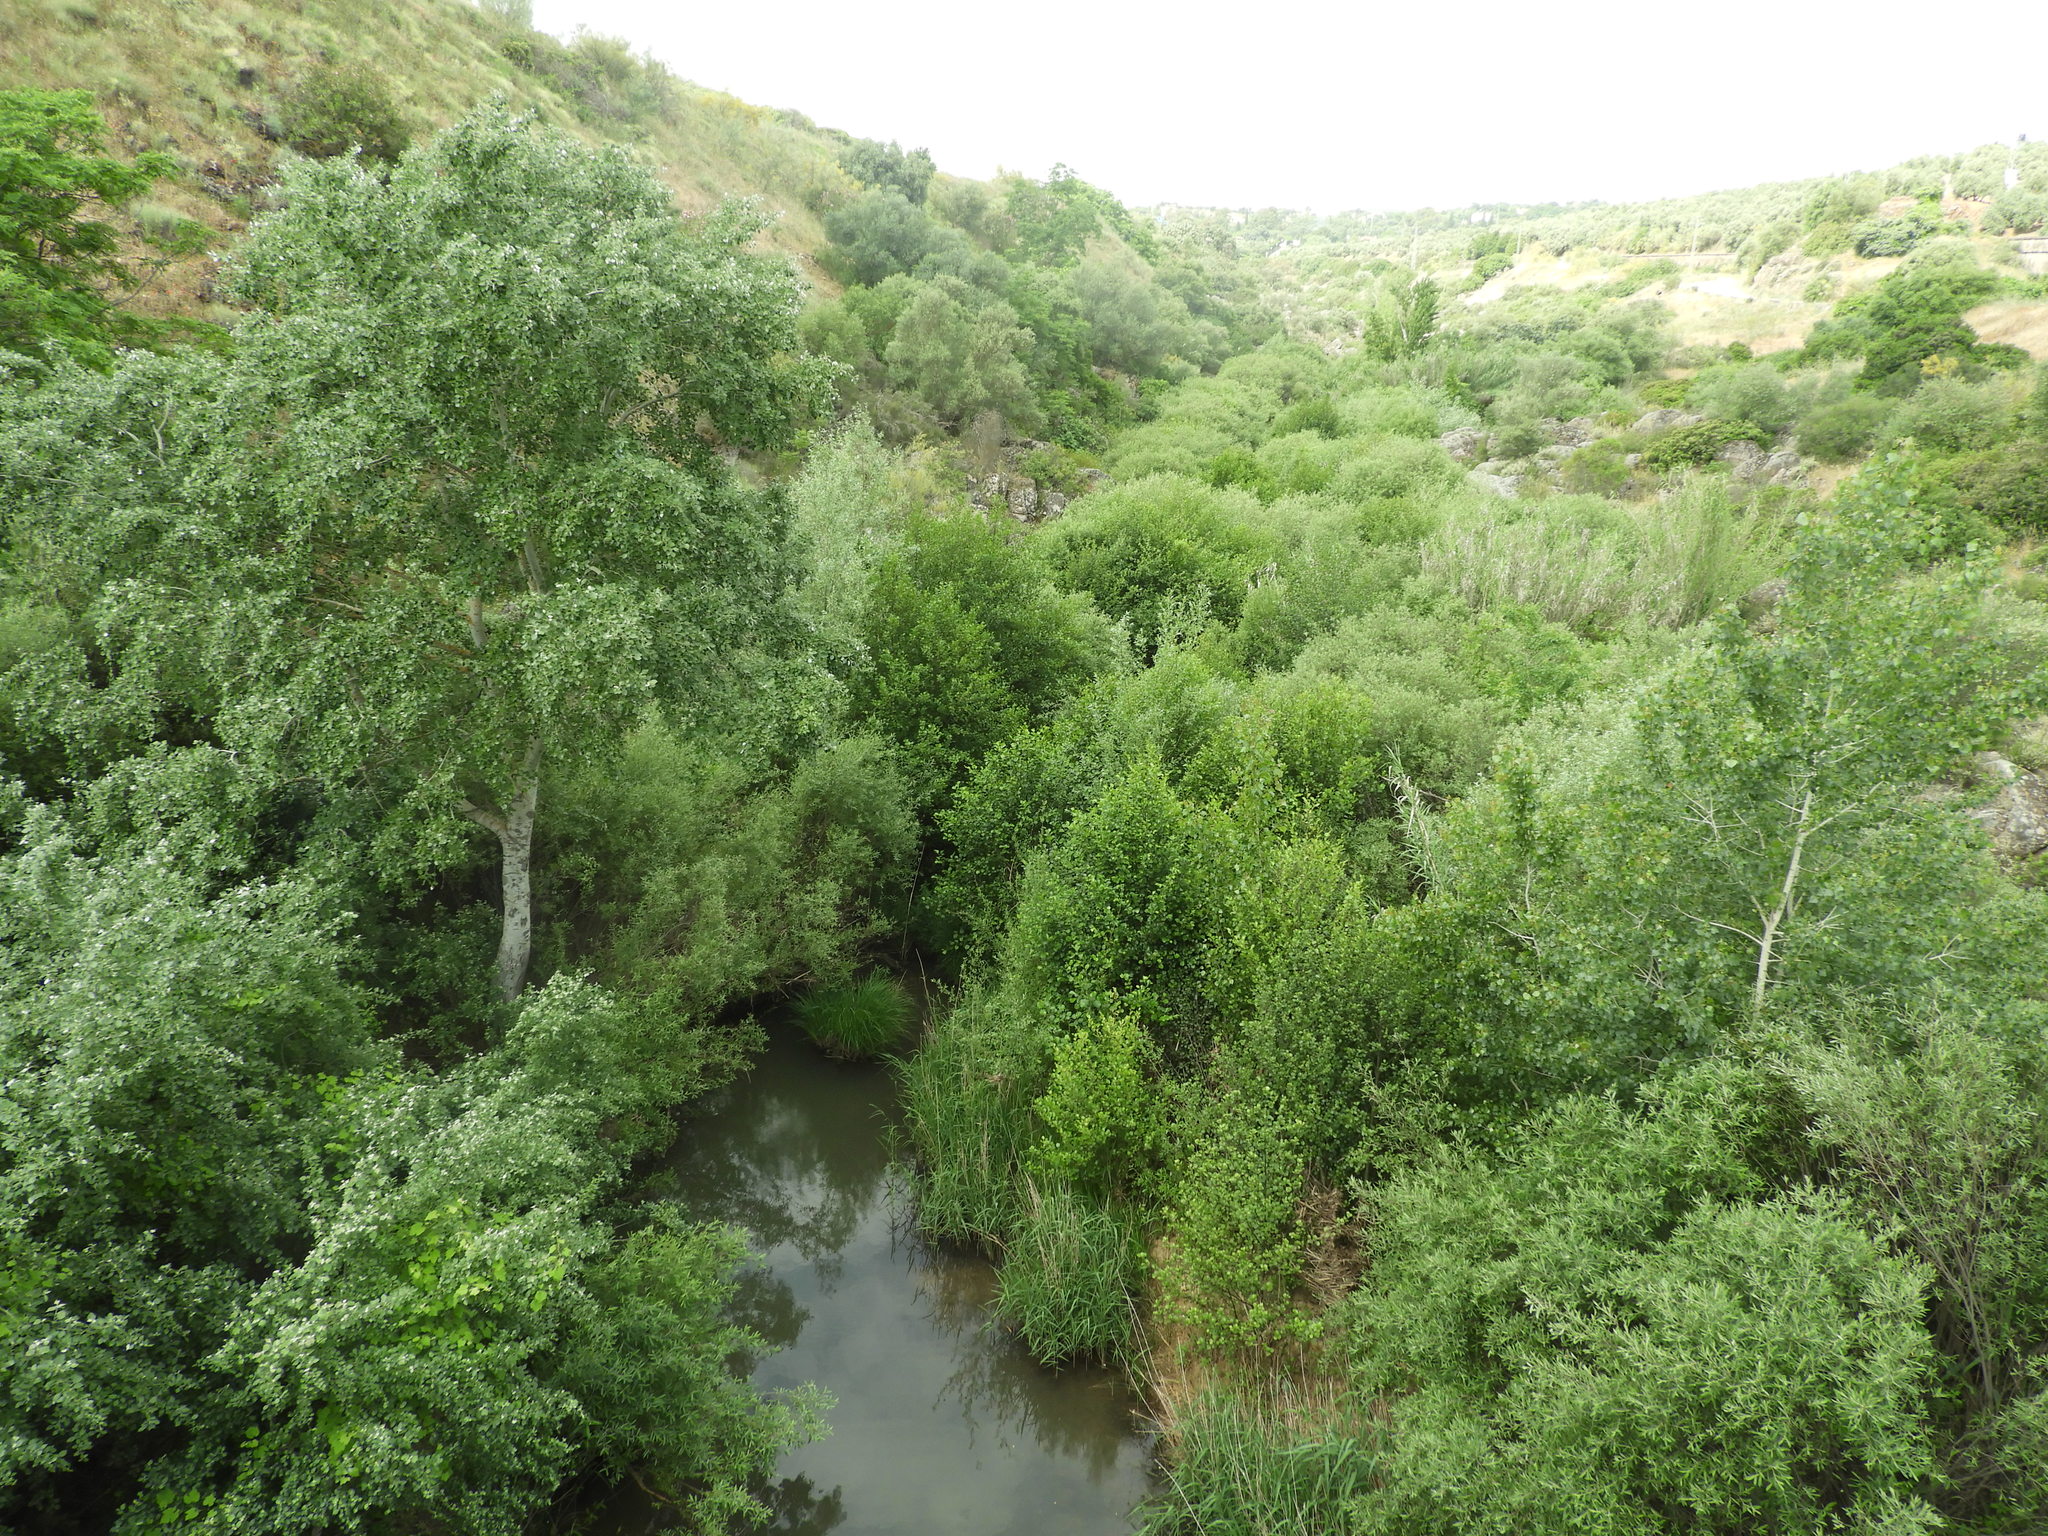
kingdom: Plantae
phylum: Tracheophyta
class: Magnoliopsida
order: Malpighiales
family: Salicaceae
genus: Populus
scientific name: Populus alba
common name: White poplar
